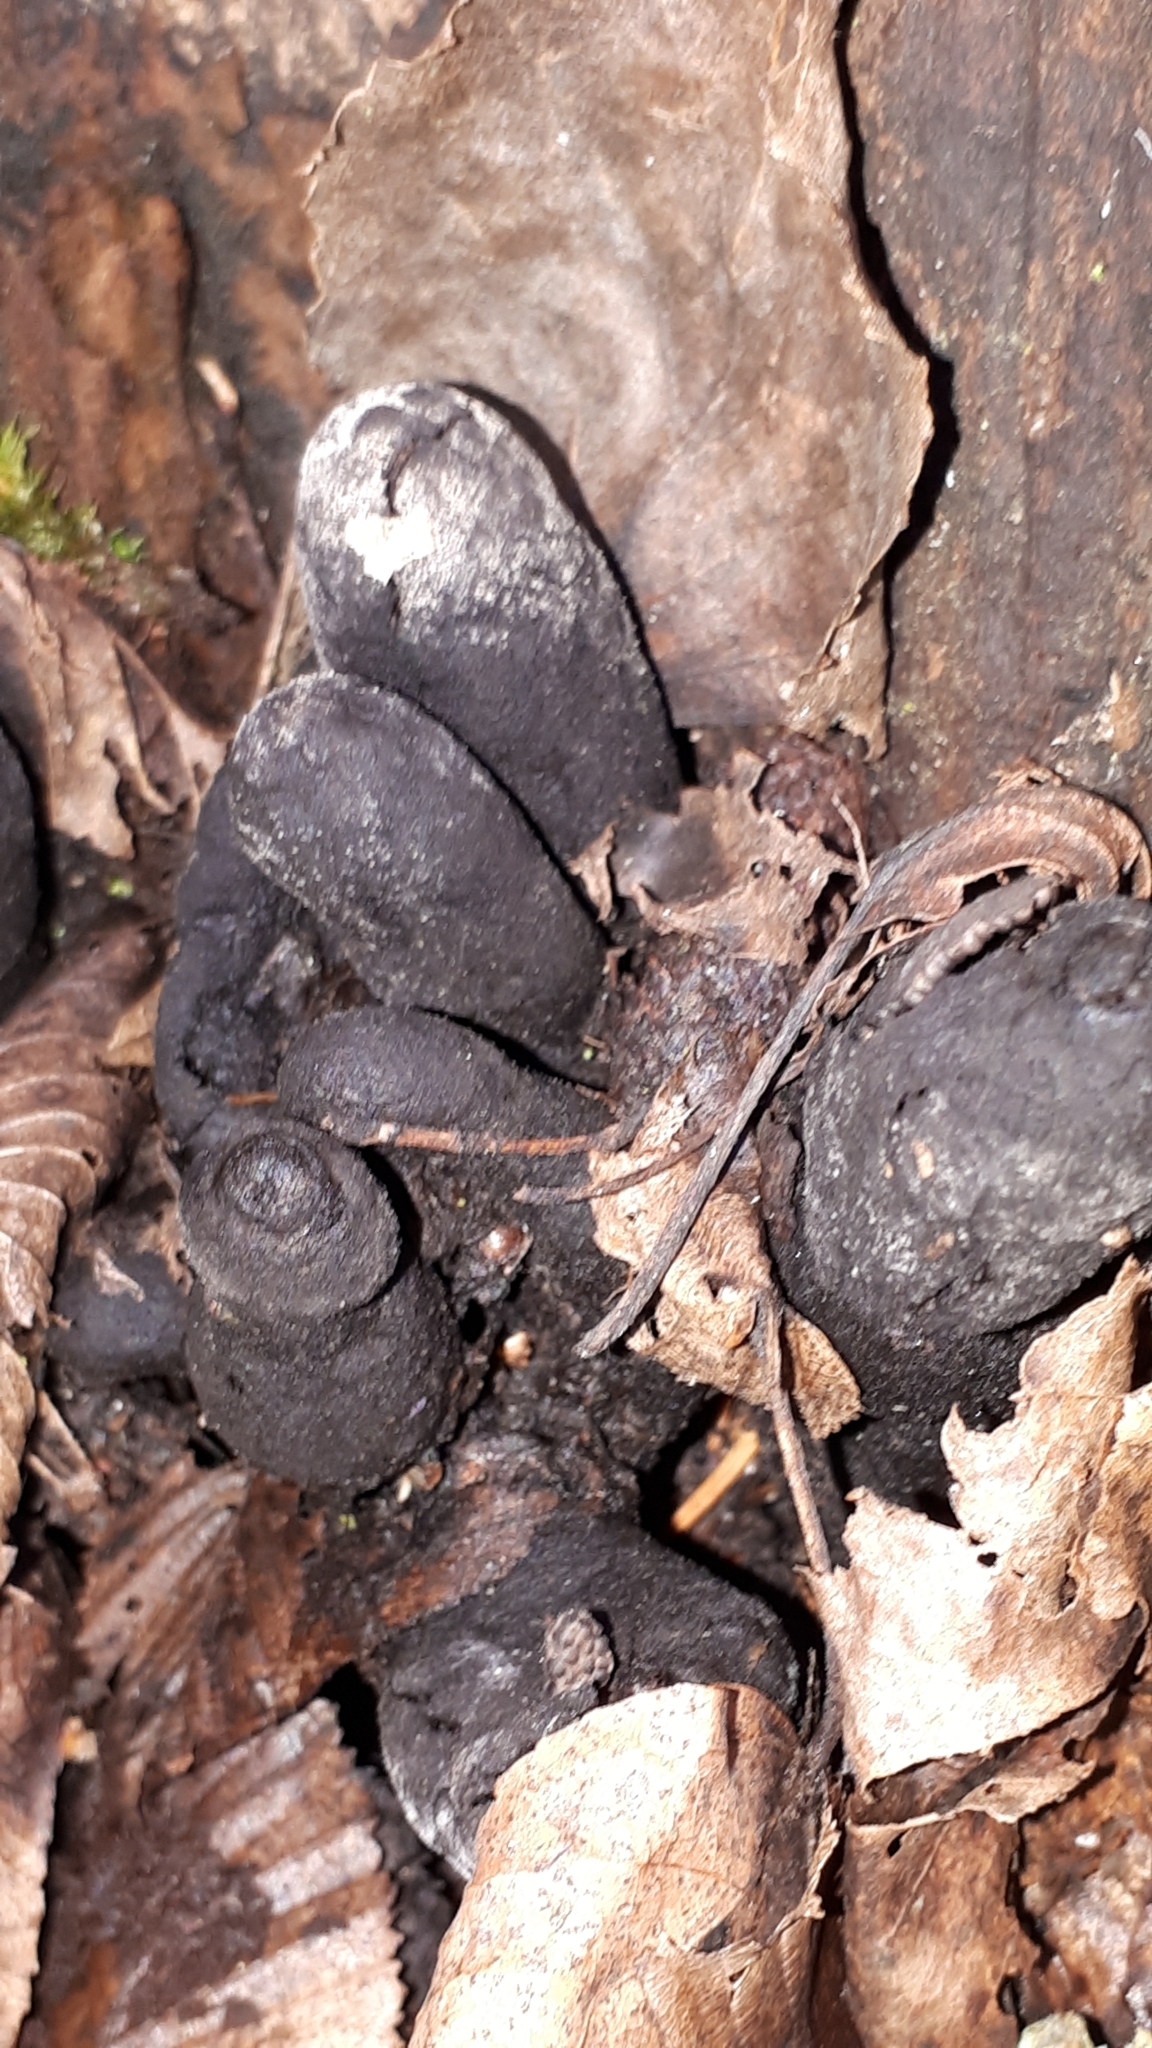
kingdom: Fungi
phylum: Ascomycota
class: Sordariomycetes
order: Xylariales
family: Xylariaceae
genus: Xylaria
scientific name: Xylaria polymorpha
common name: Dead man's fingers
